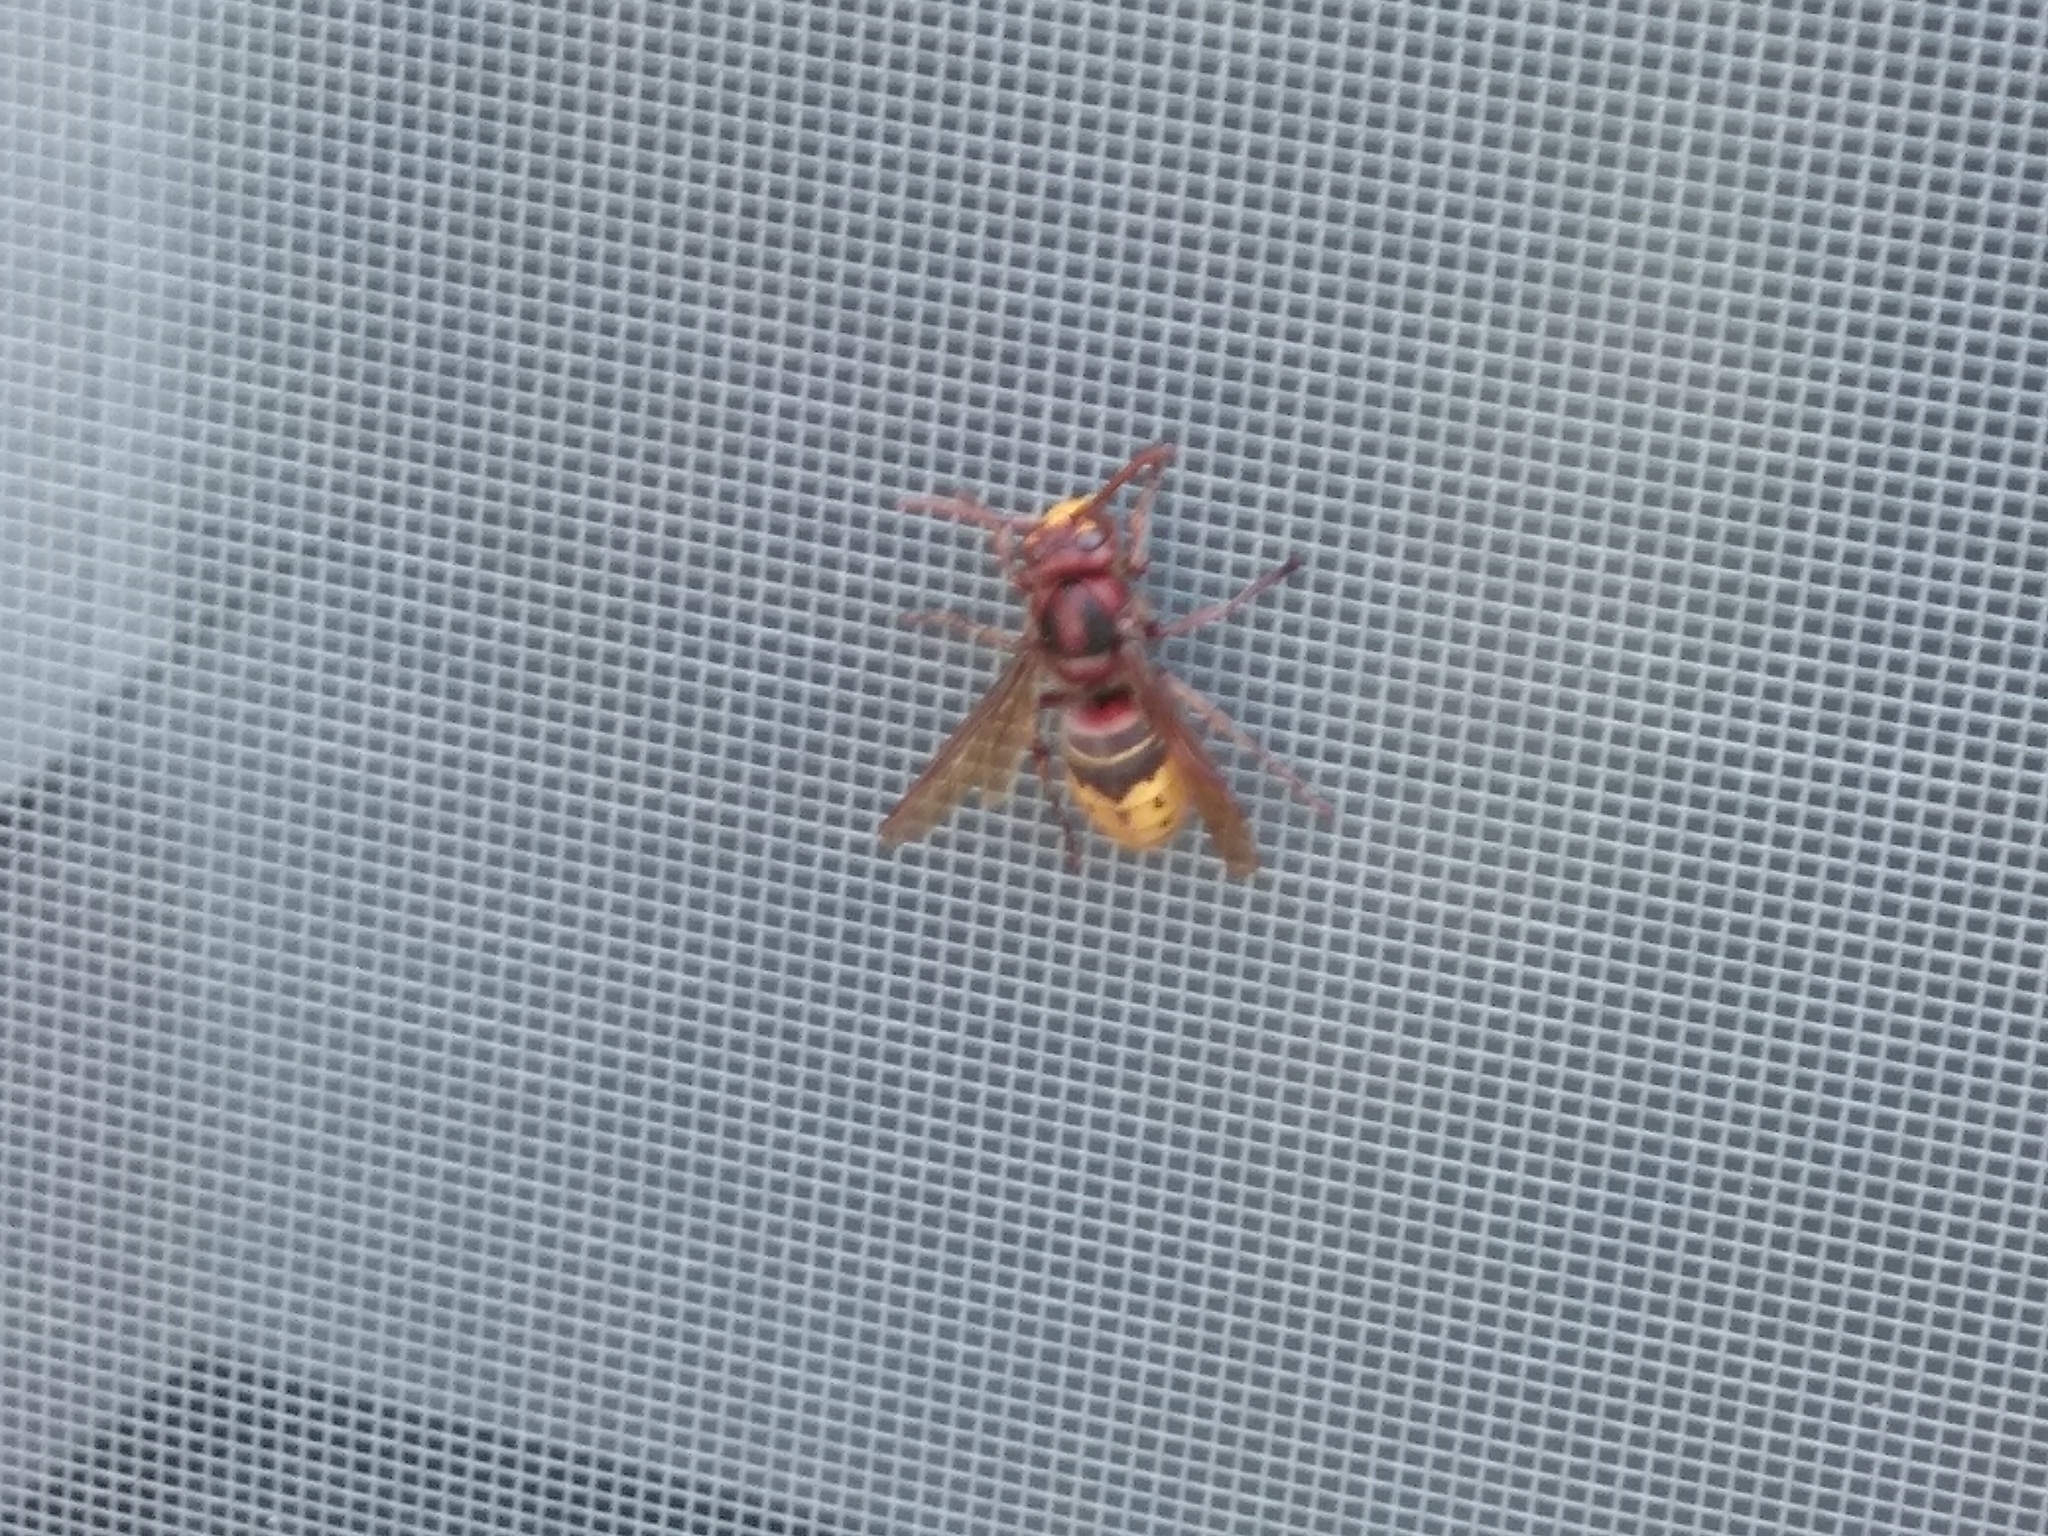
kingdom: Animalia
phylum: Arthropoda
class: Insecta
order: Hymenoptera
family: Vespidae
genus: Vespa
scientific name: Vespa crabro
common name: Hornet
